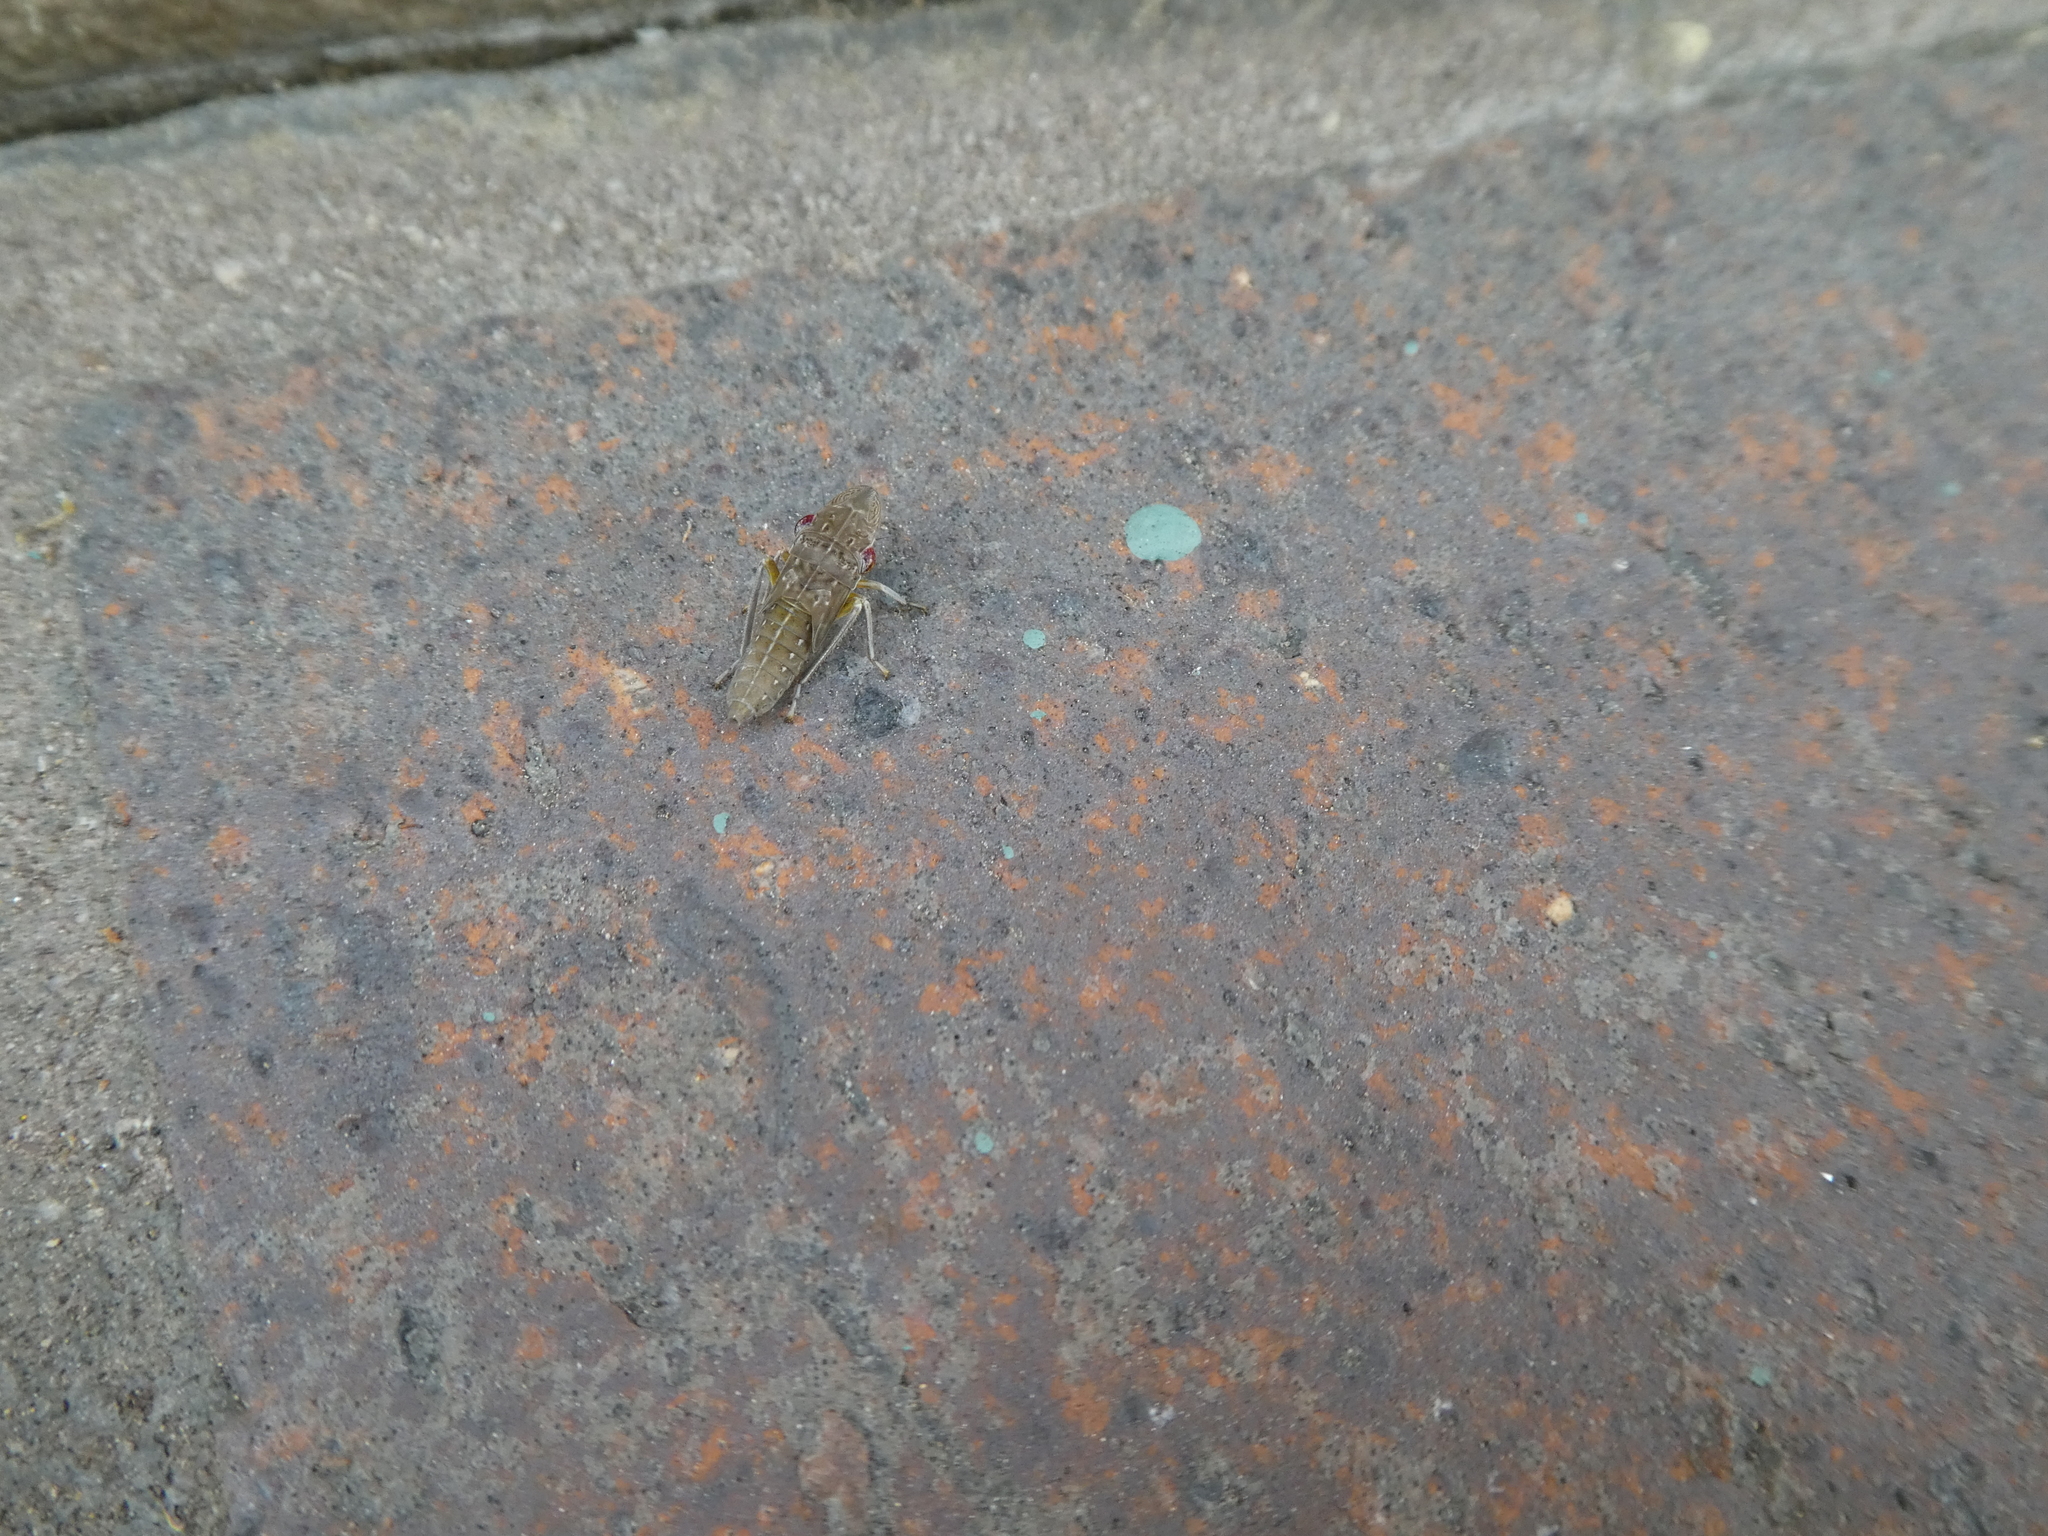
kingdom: Animalia
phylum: Arthropoda
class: Insecta
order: Hemiptera
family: Cicadellidae
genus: Homalodisca
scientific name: Homalodisca
